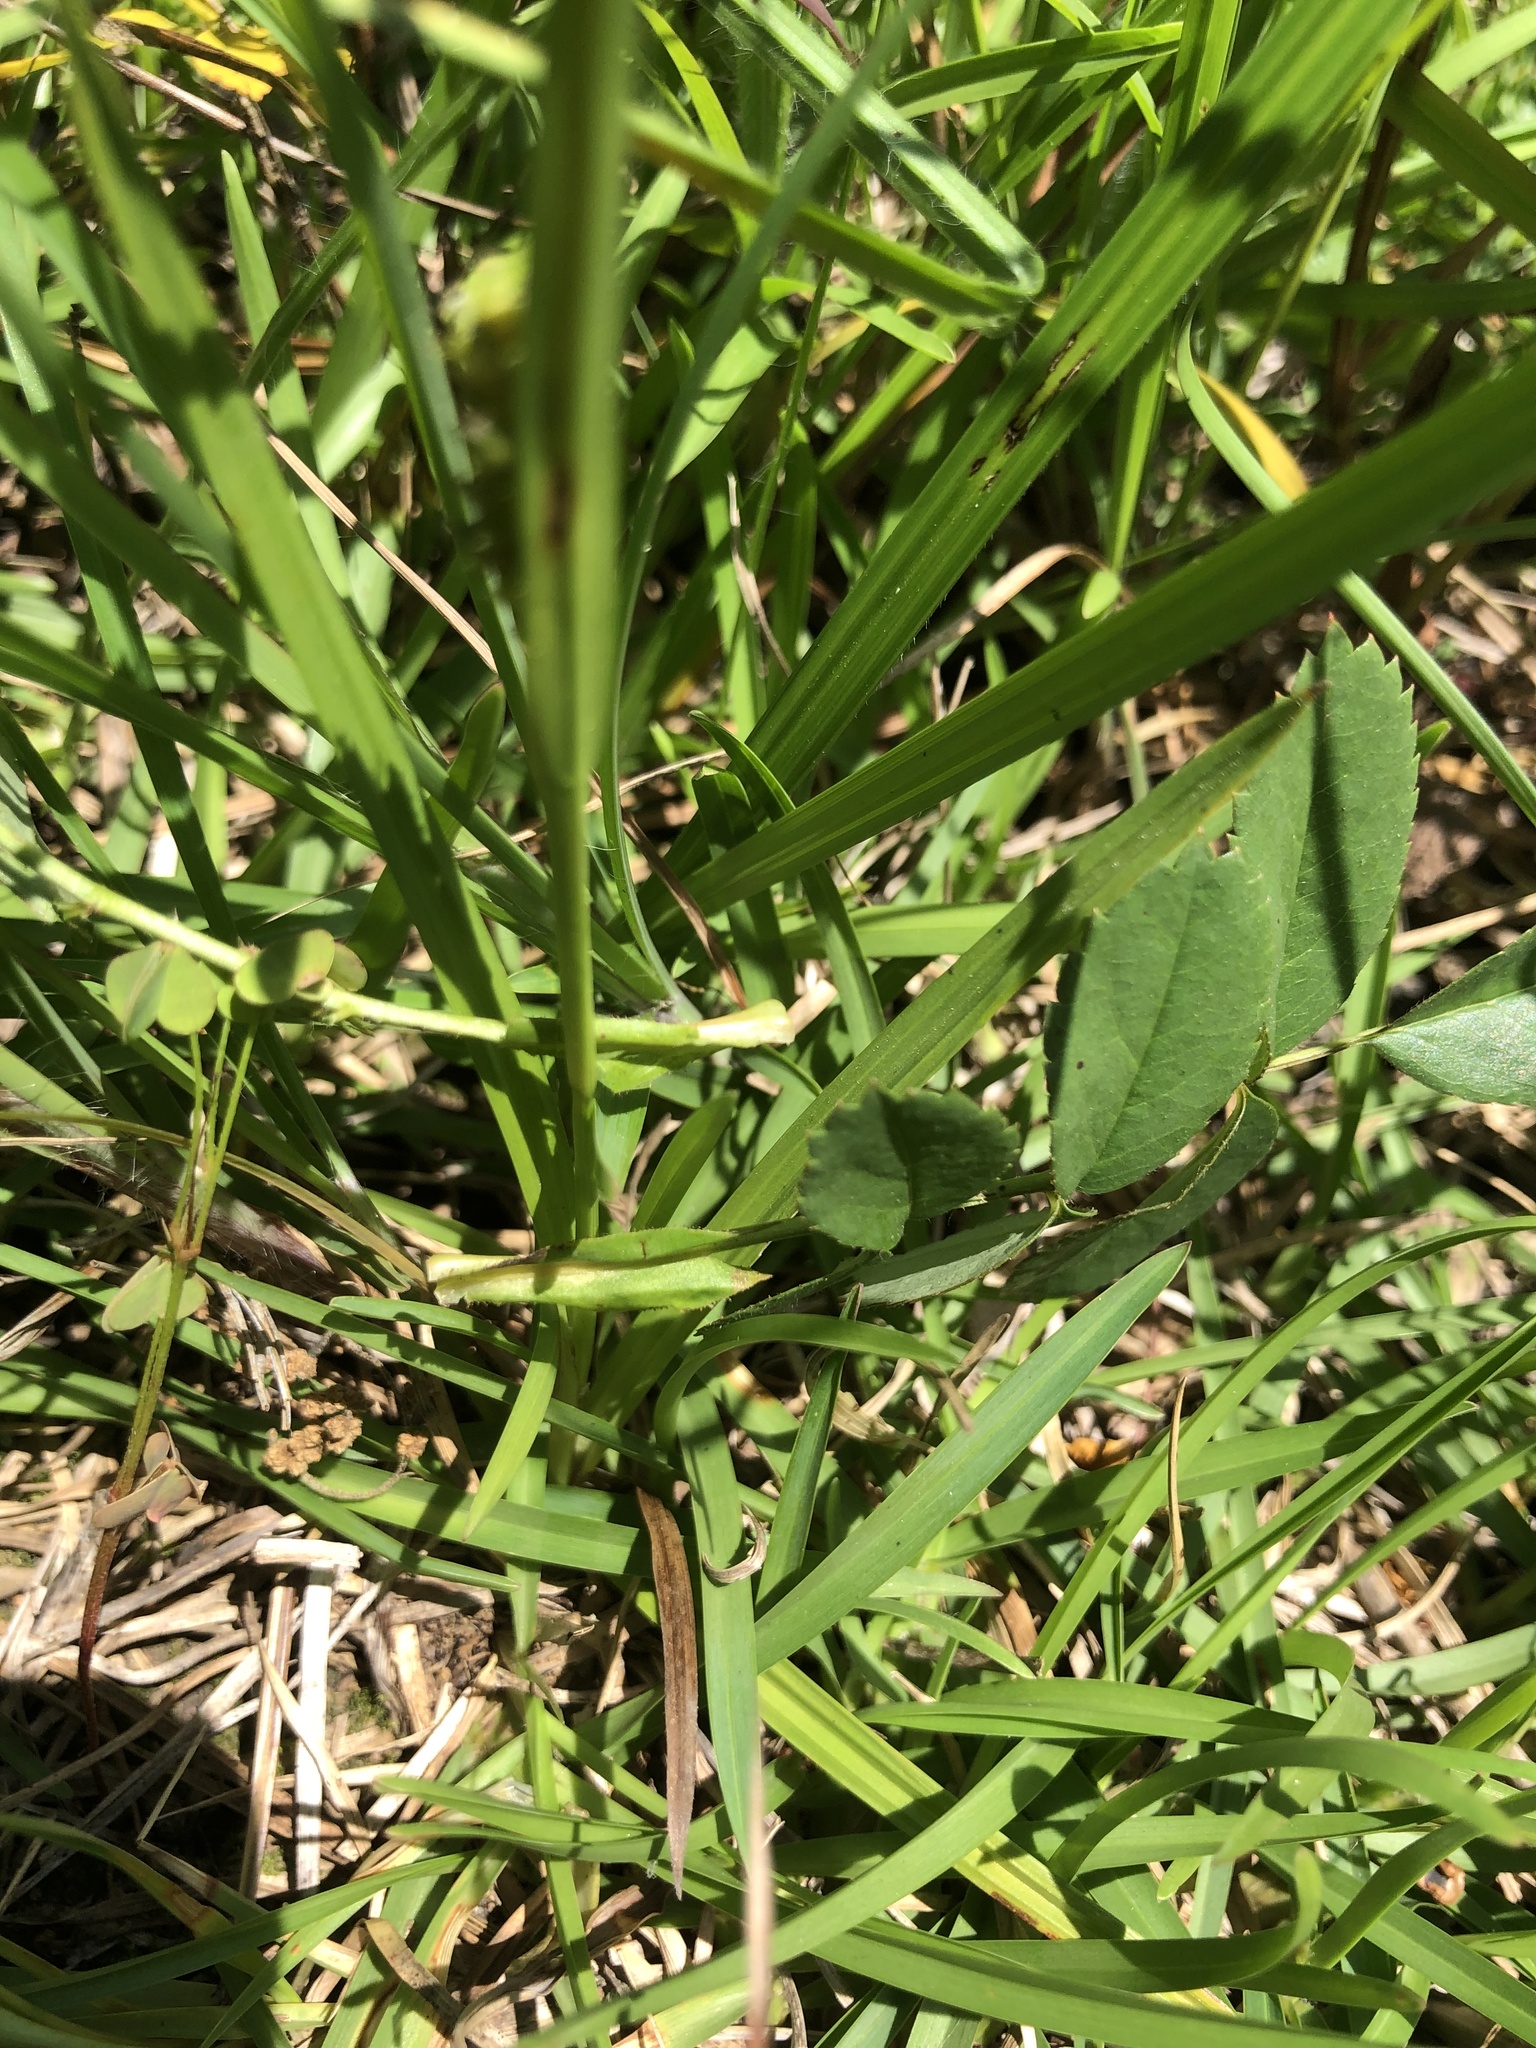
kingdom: Plantae
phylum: Tracheophyta
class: Liliopsida
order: Poales
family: Cyperaceae
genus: Carex
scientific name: Carex microdonta
